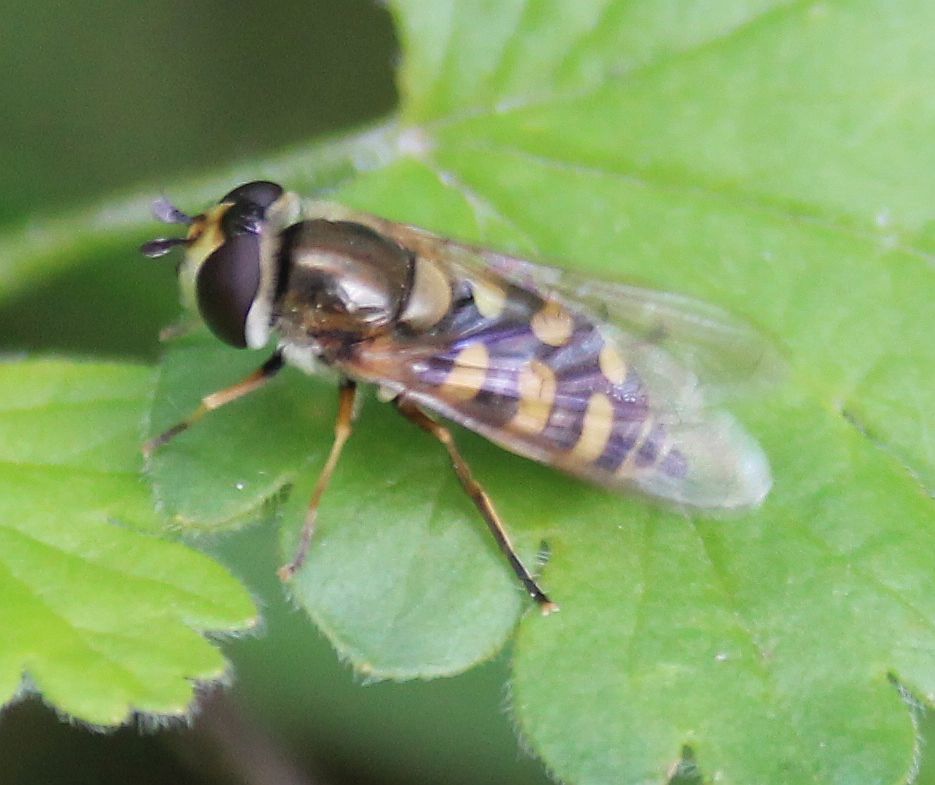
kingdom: Animalia
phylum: Arthropoda
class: Insecta
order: Diptera
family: Syrphidae
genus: Eupeodes
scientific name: Eupeodes corollae
